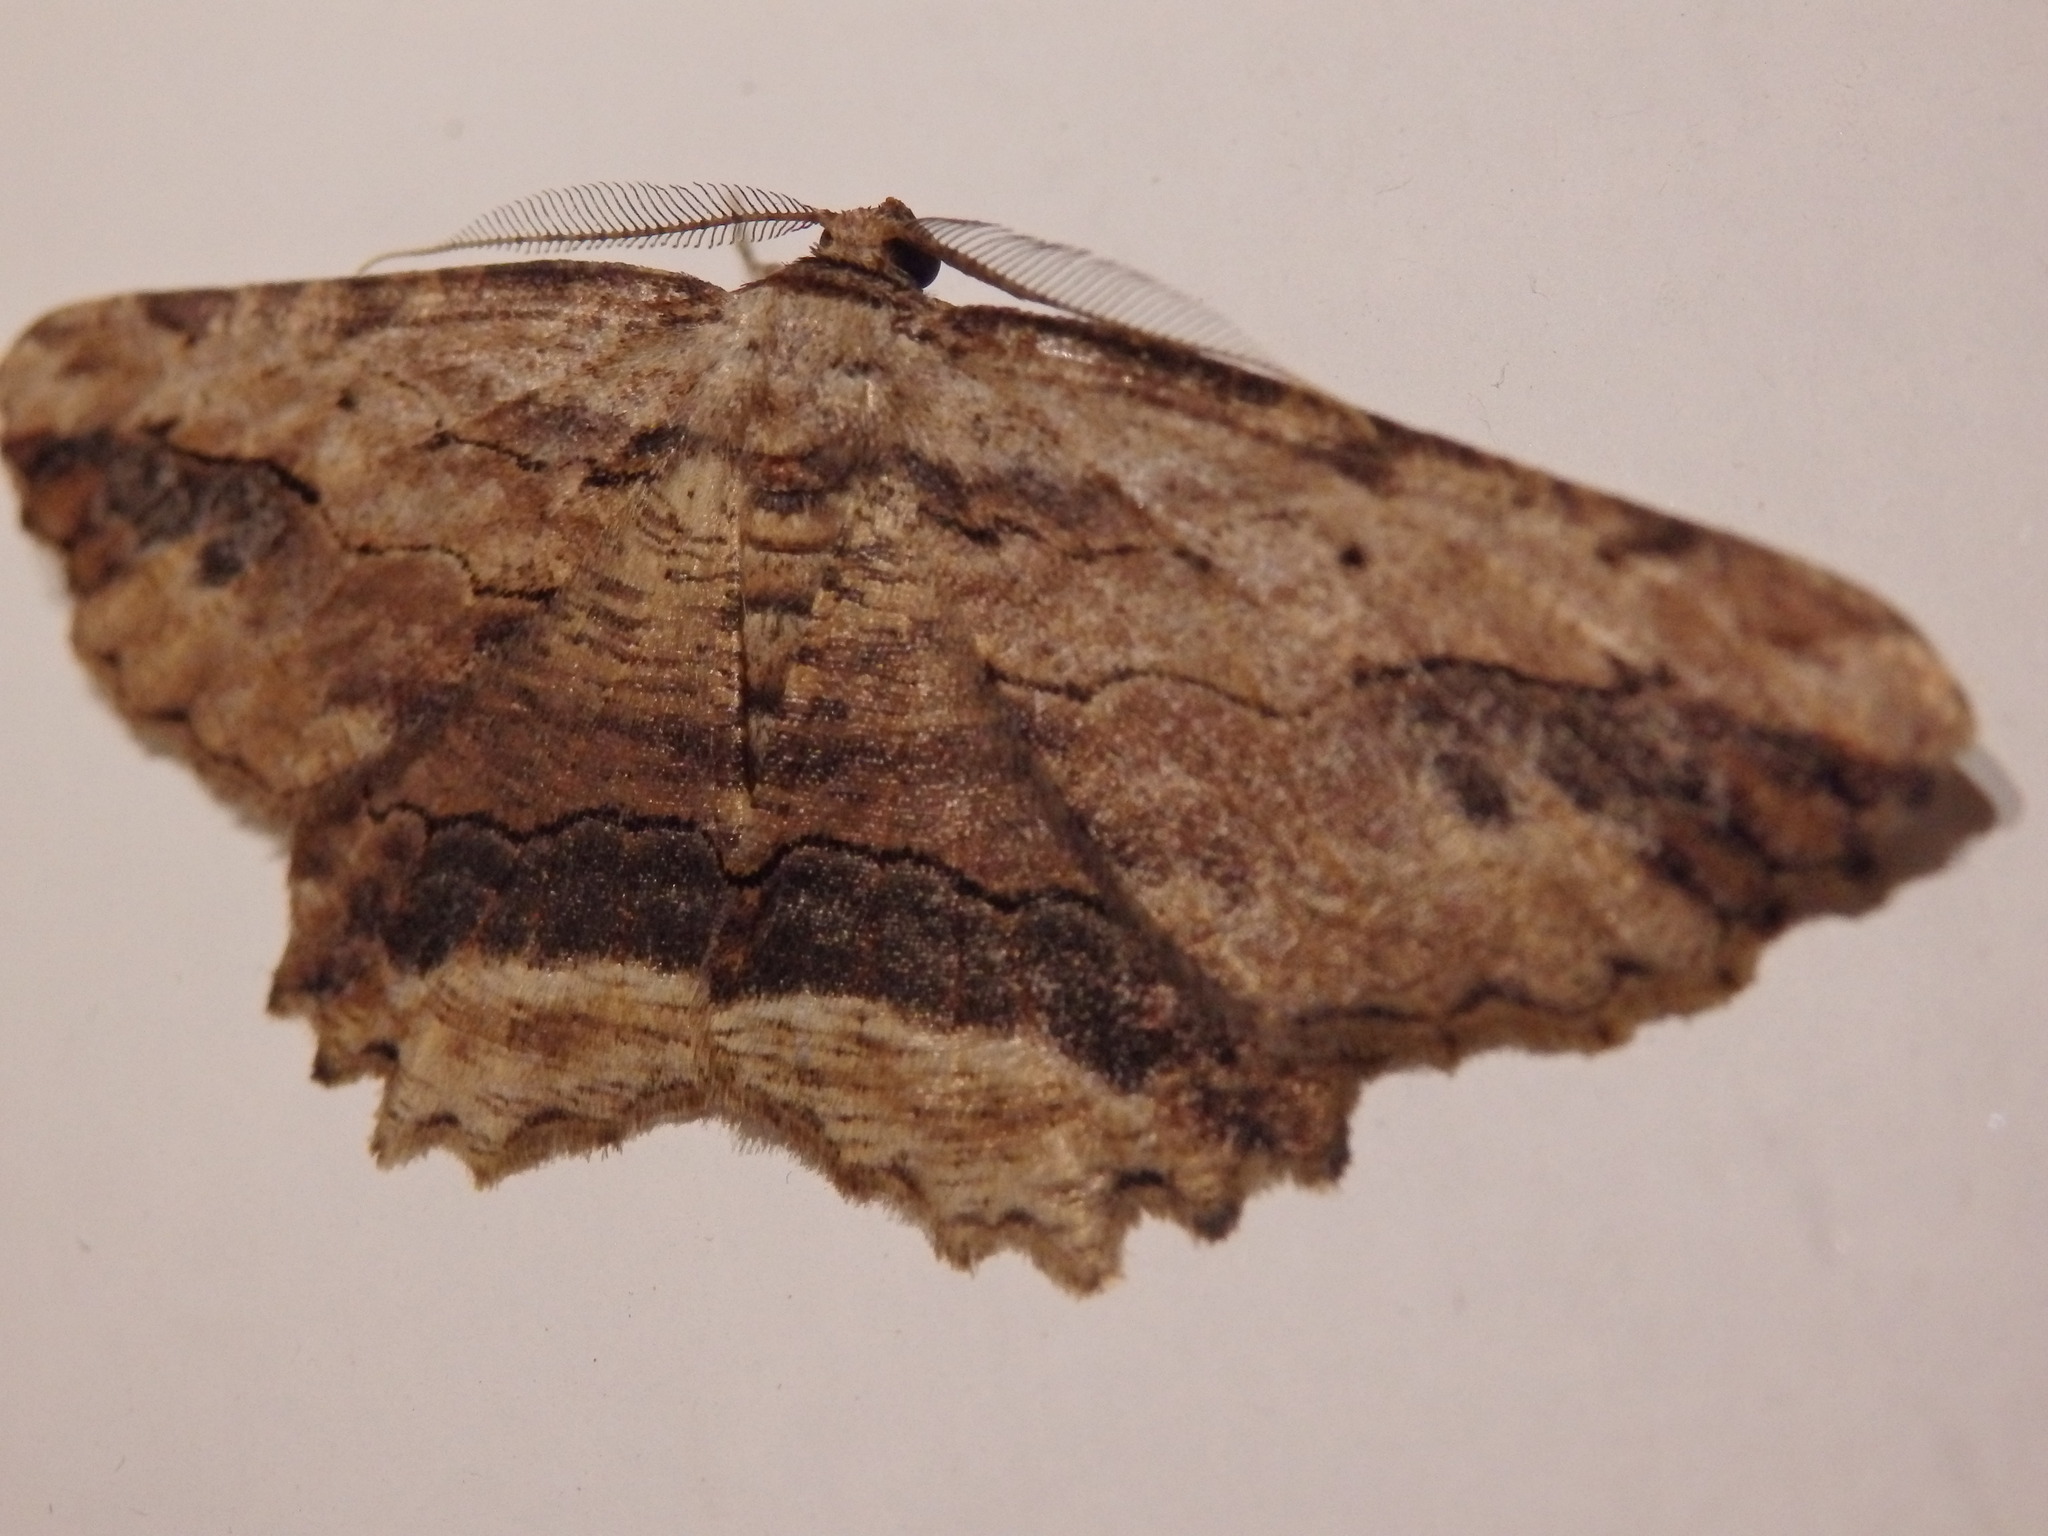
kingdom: Animalia
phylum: Arthropoda
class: Insecta
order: Lepidoptera
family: Geometridae
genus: Menophra
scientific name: Menophra abruptaria
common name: Waved umber
